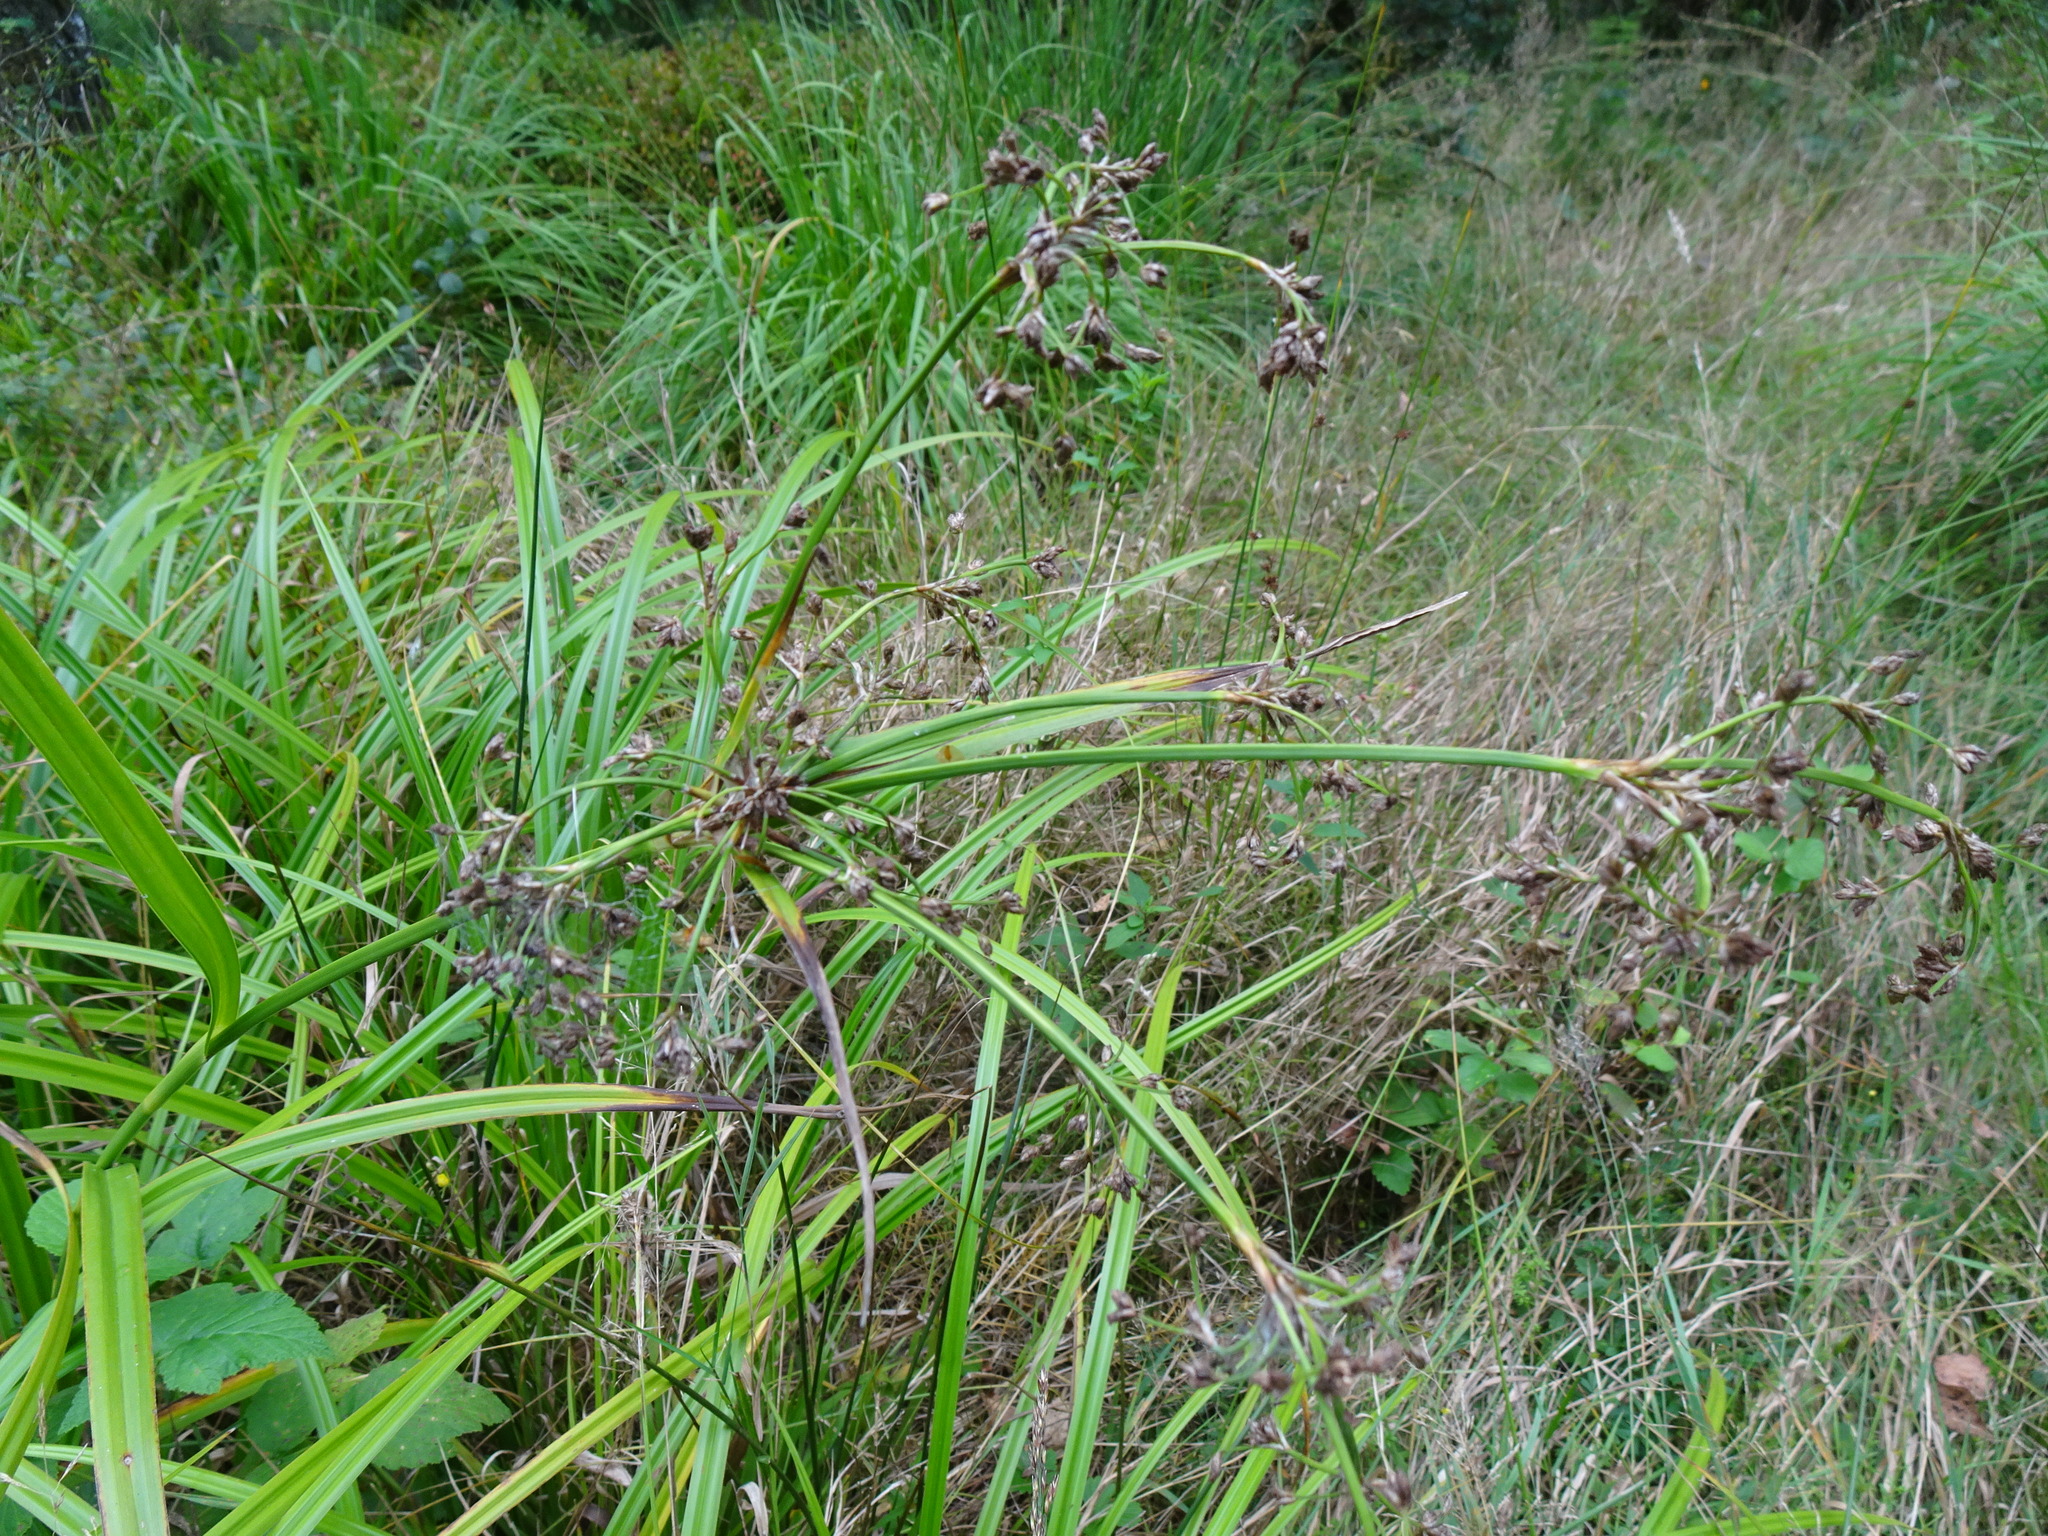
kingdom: Plantae
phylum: Tracheophyta
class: Liliopsida
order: Poales
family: Cyperaceae
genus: Scirpus
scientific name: Scirpus sylvaticus
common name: Wood club-rush
